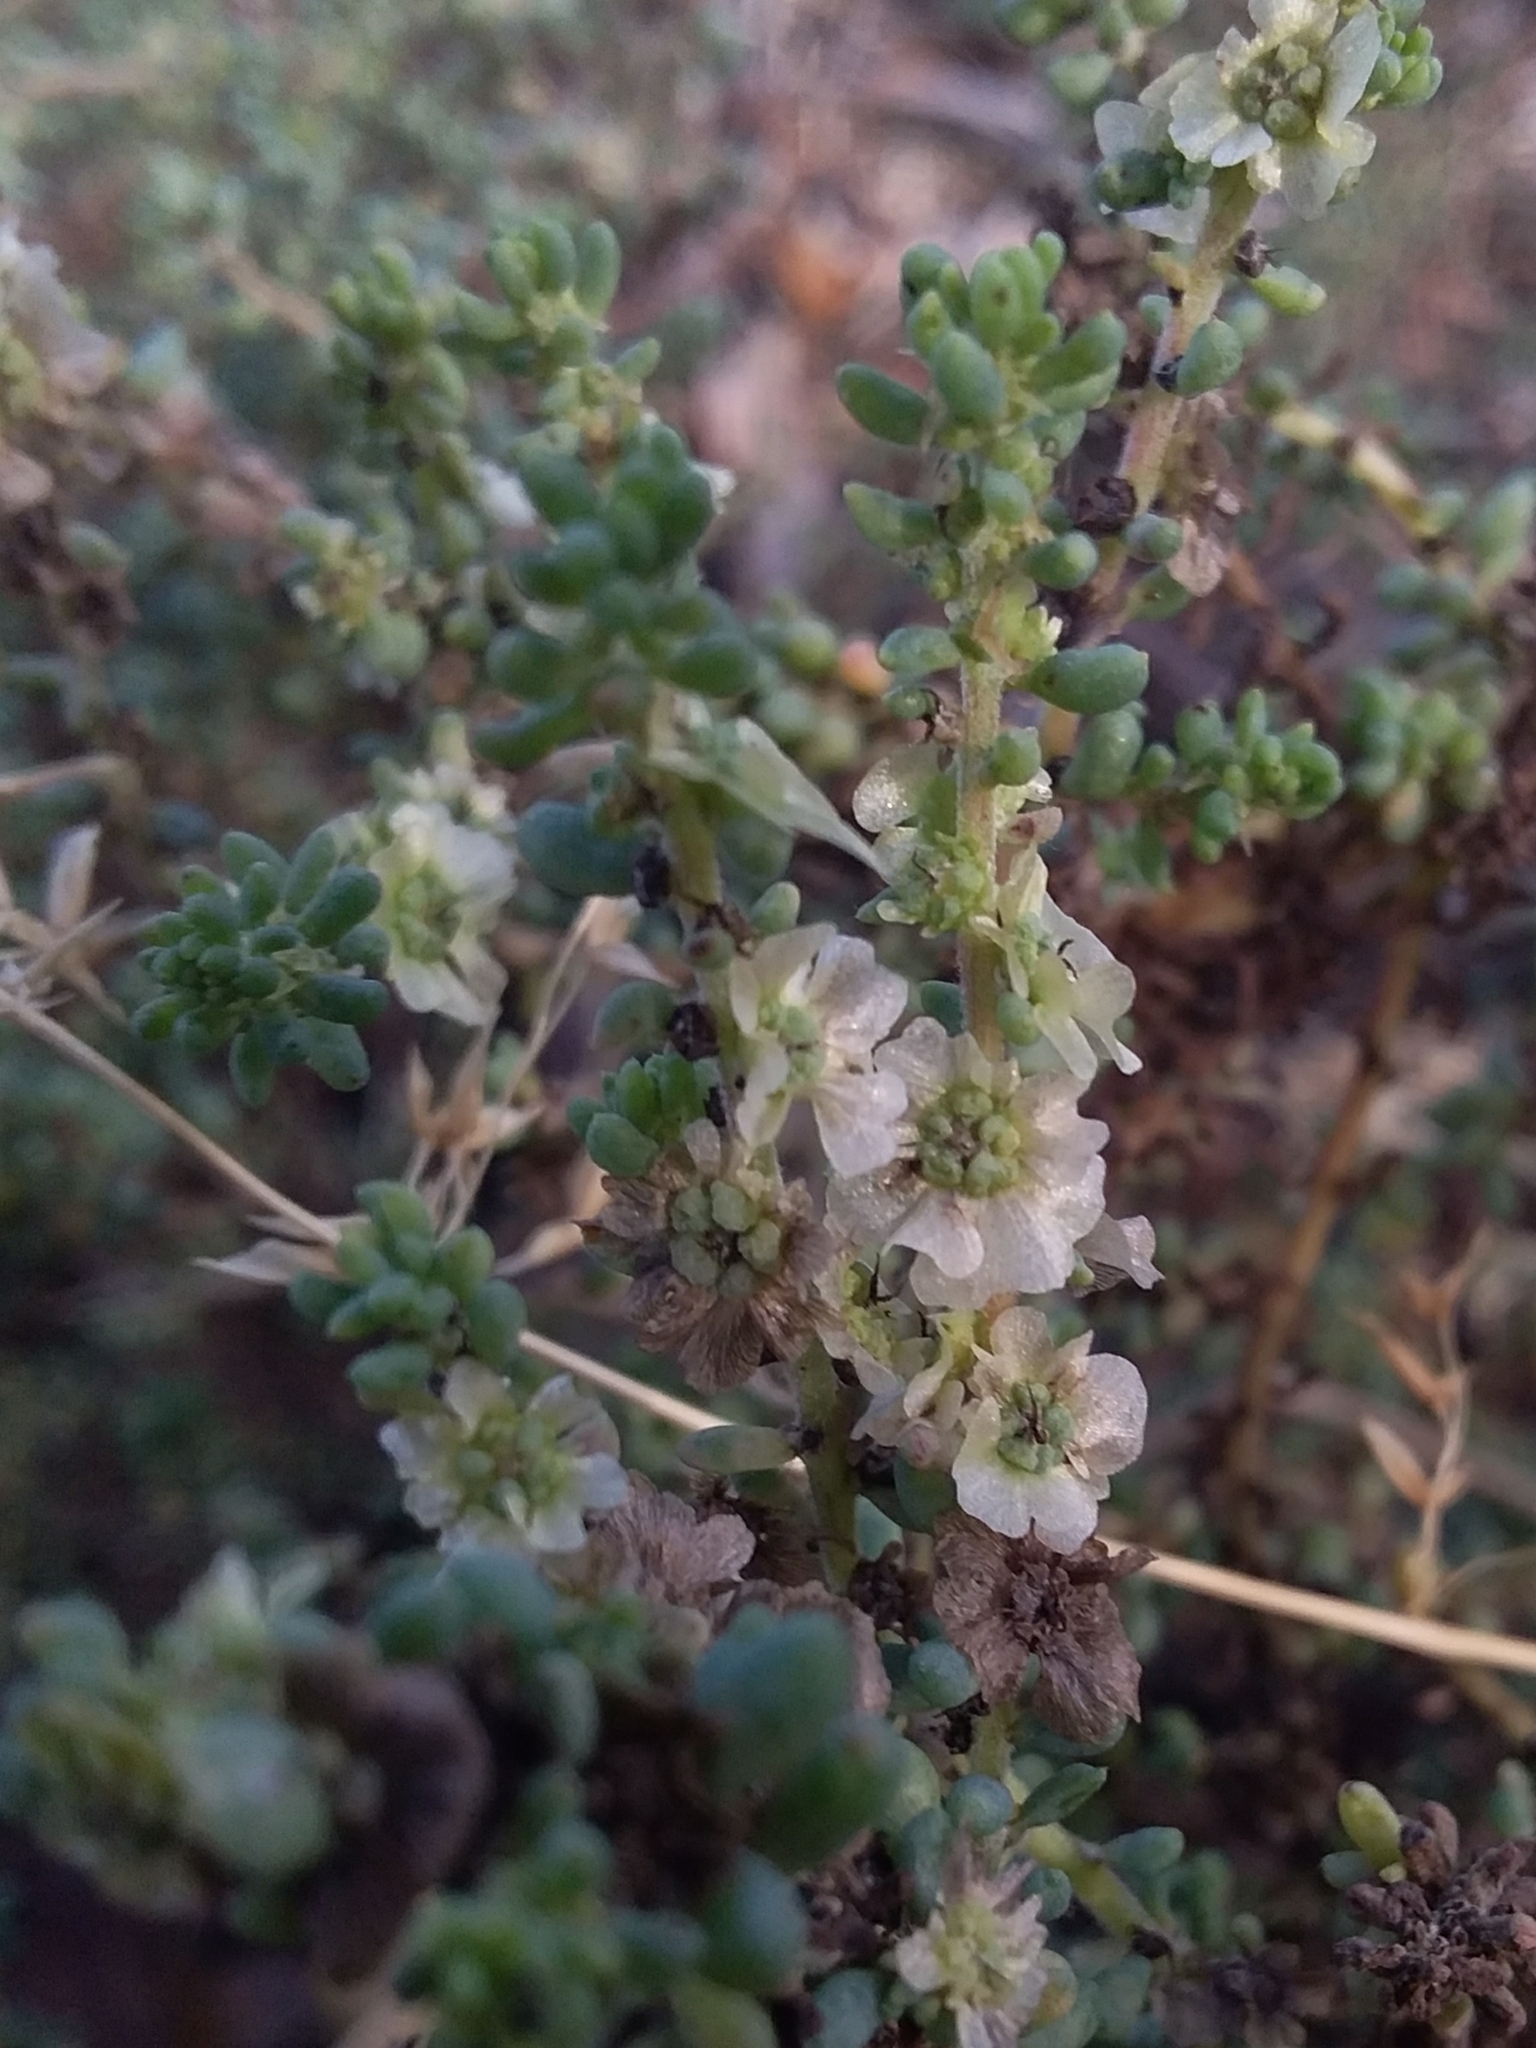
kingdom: Plantae
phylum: Tracheophyta
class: Magnoliopsida
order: Caryophyllales
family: Amaranthaceae
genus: Maireana
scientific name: Maireana brevifolia
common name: Eastern cottonbush
